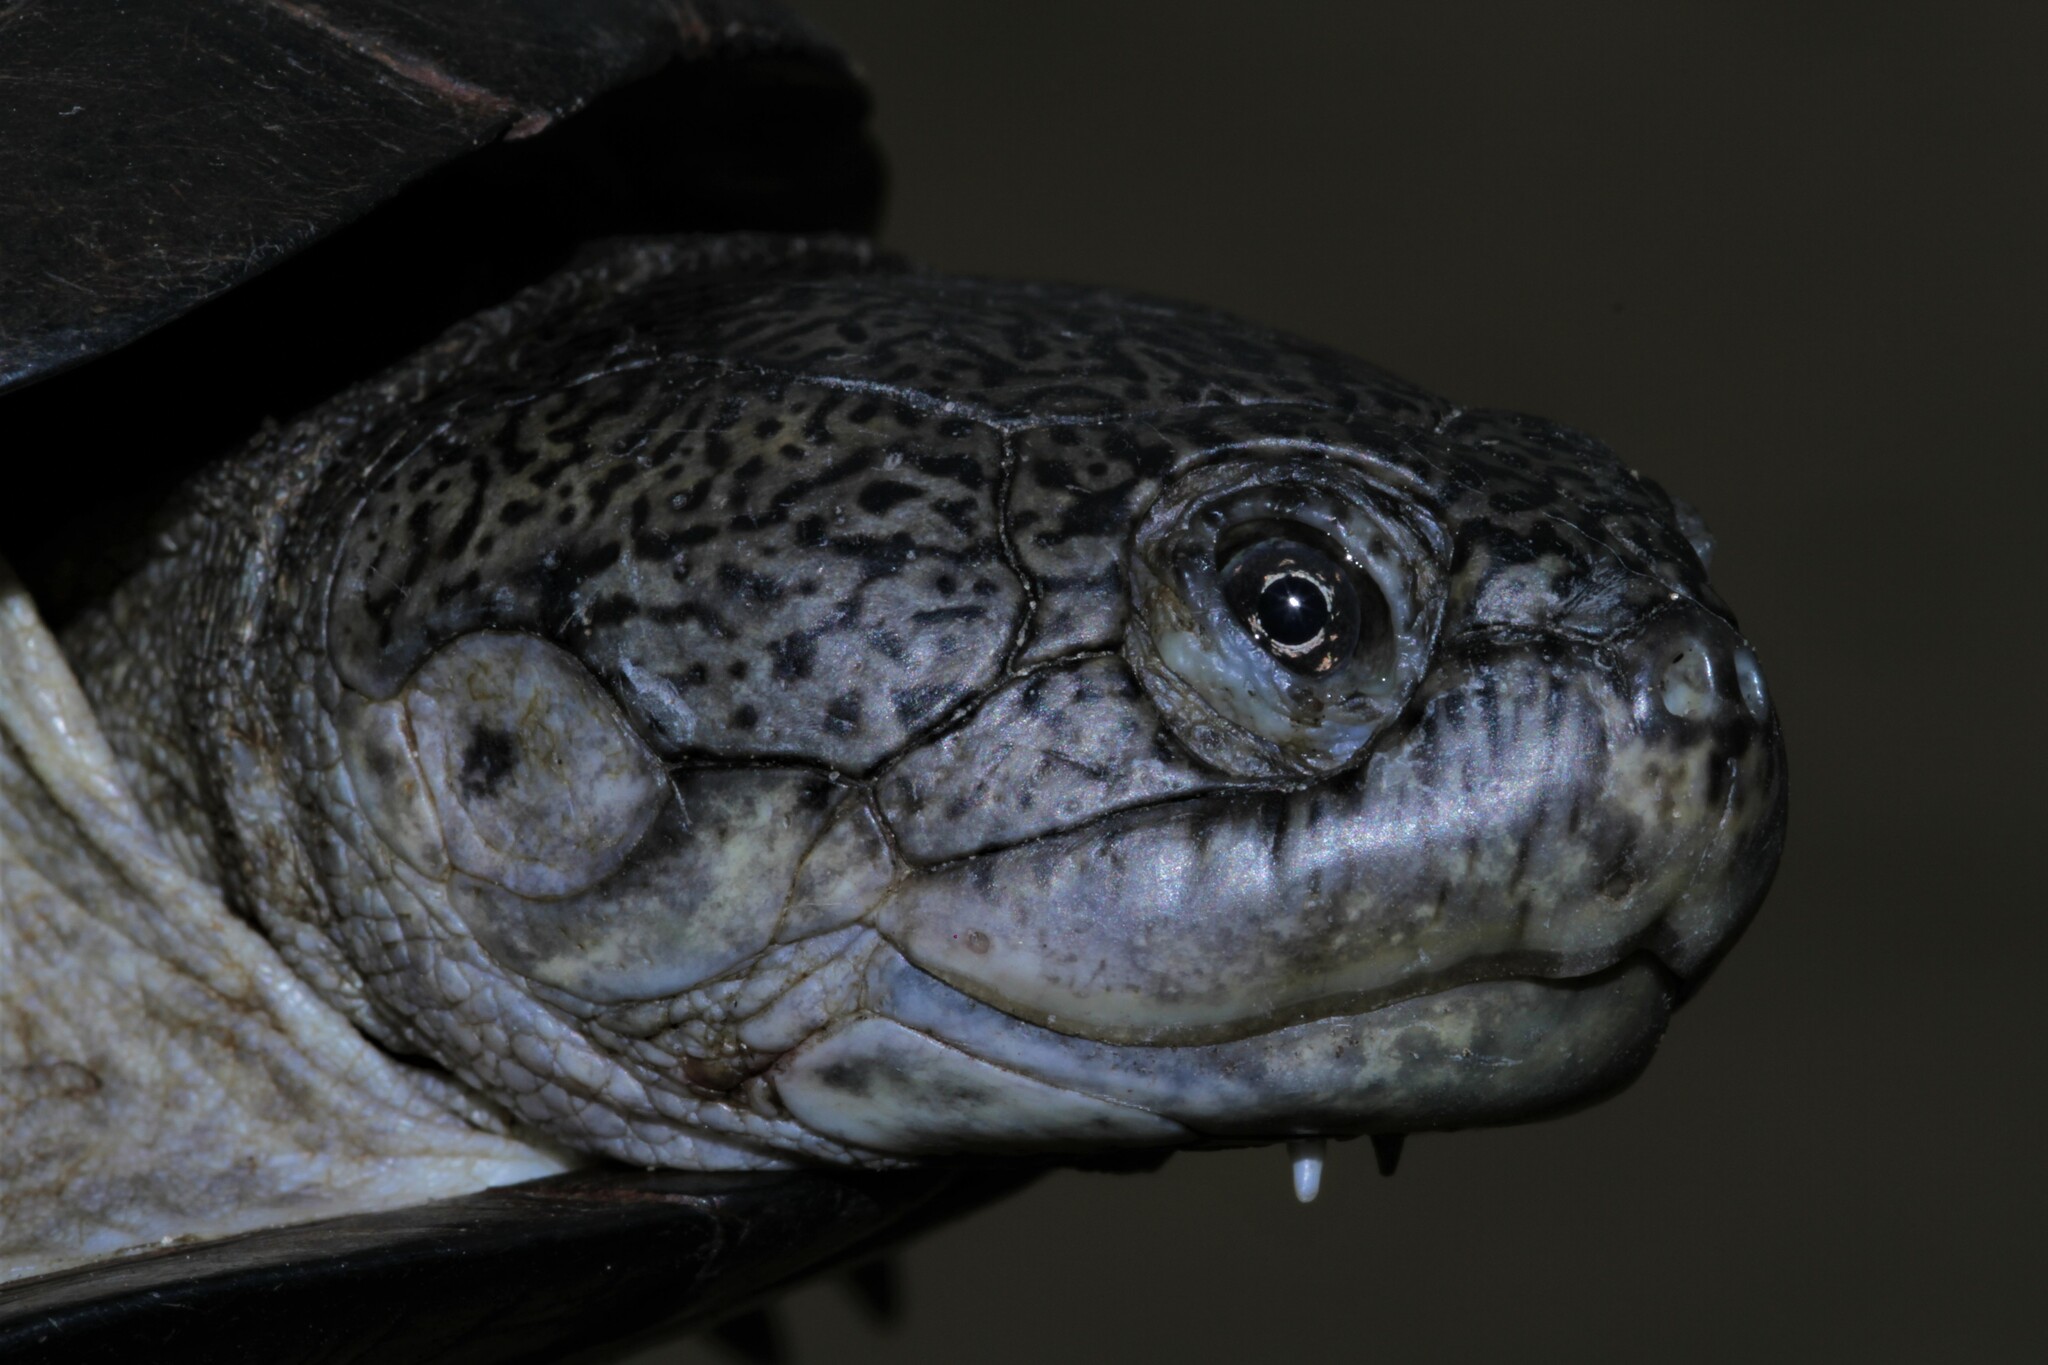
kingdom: Animalia
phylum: Chordata
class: Testudines
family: Pelomedusidae
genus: Pelusios
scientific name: Pelusios castaneus
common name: West african mud turtle
